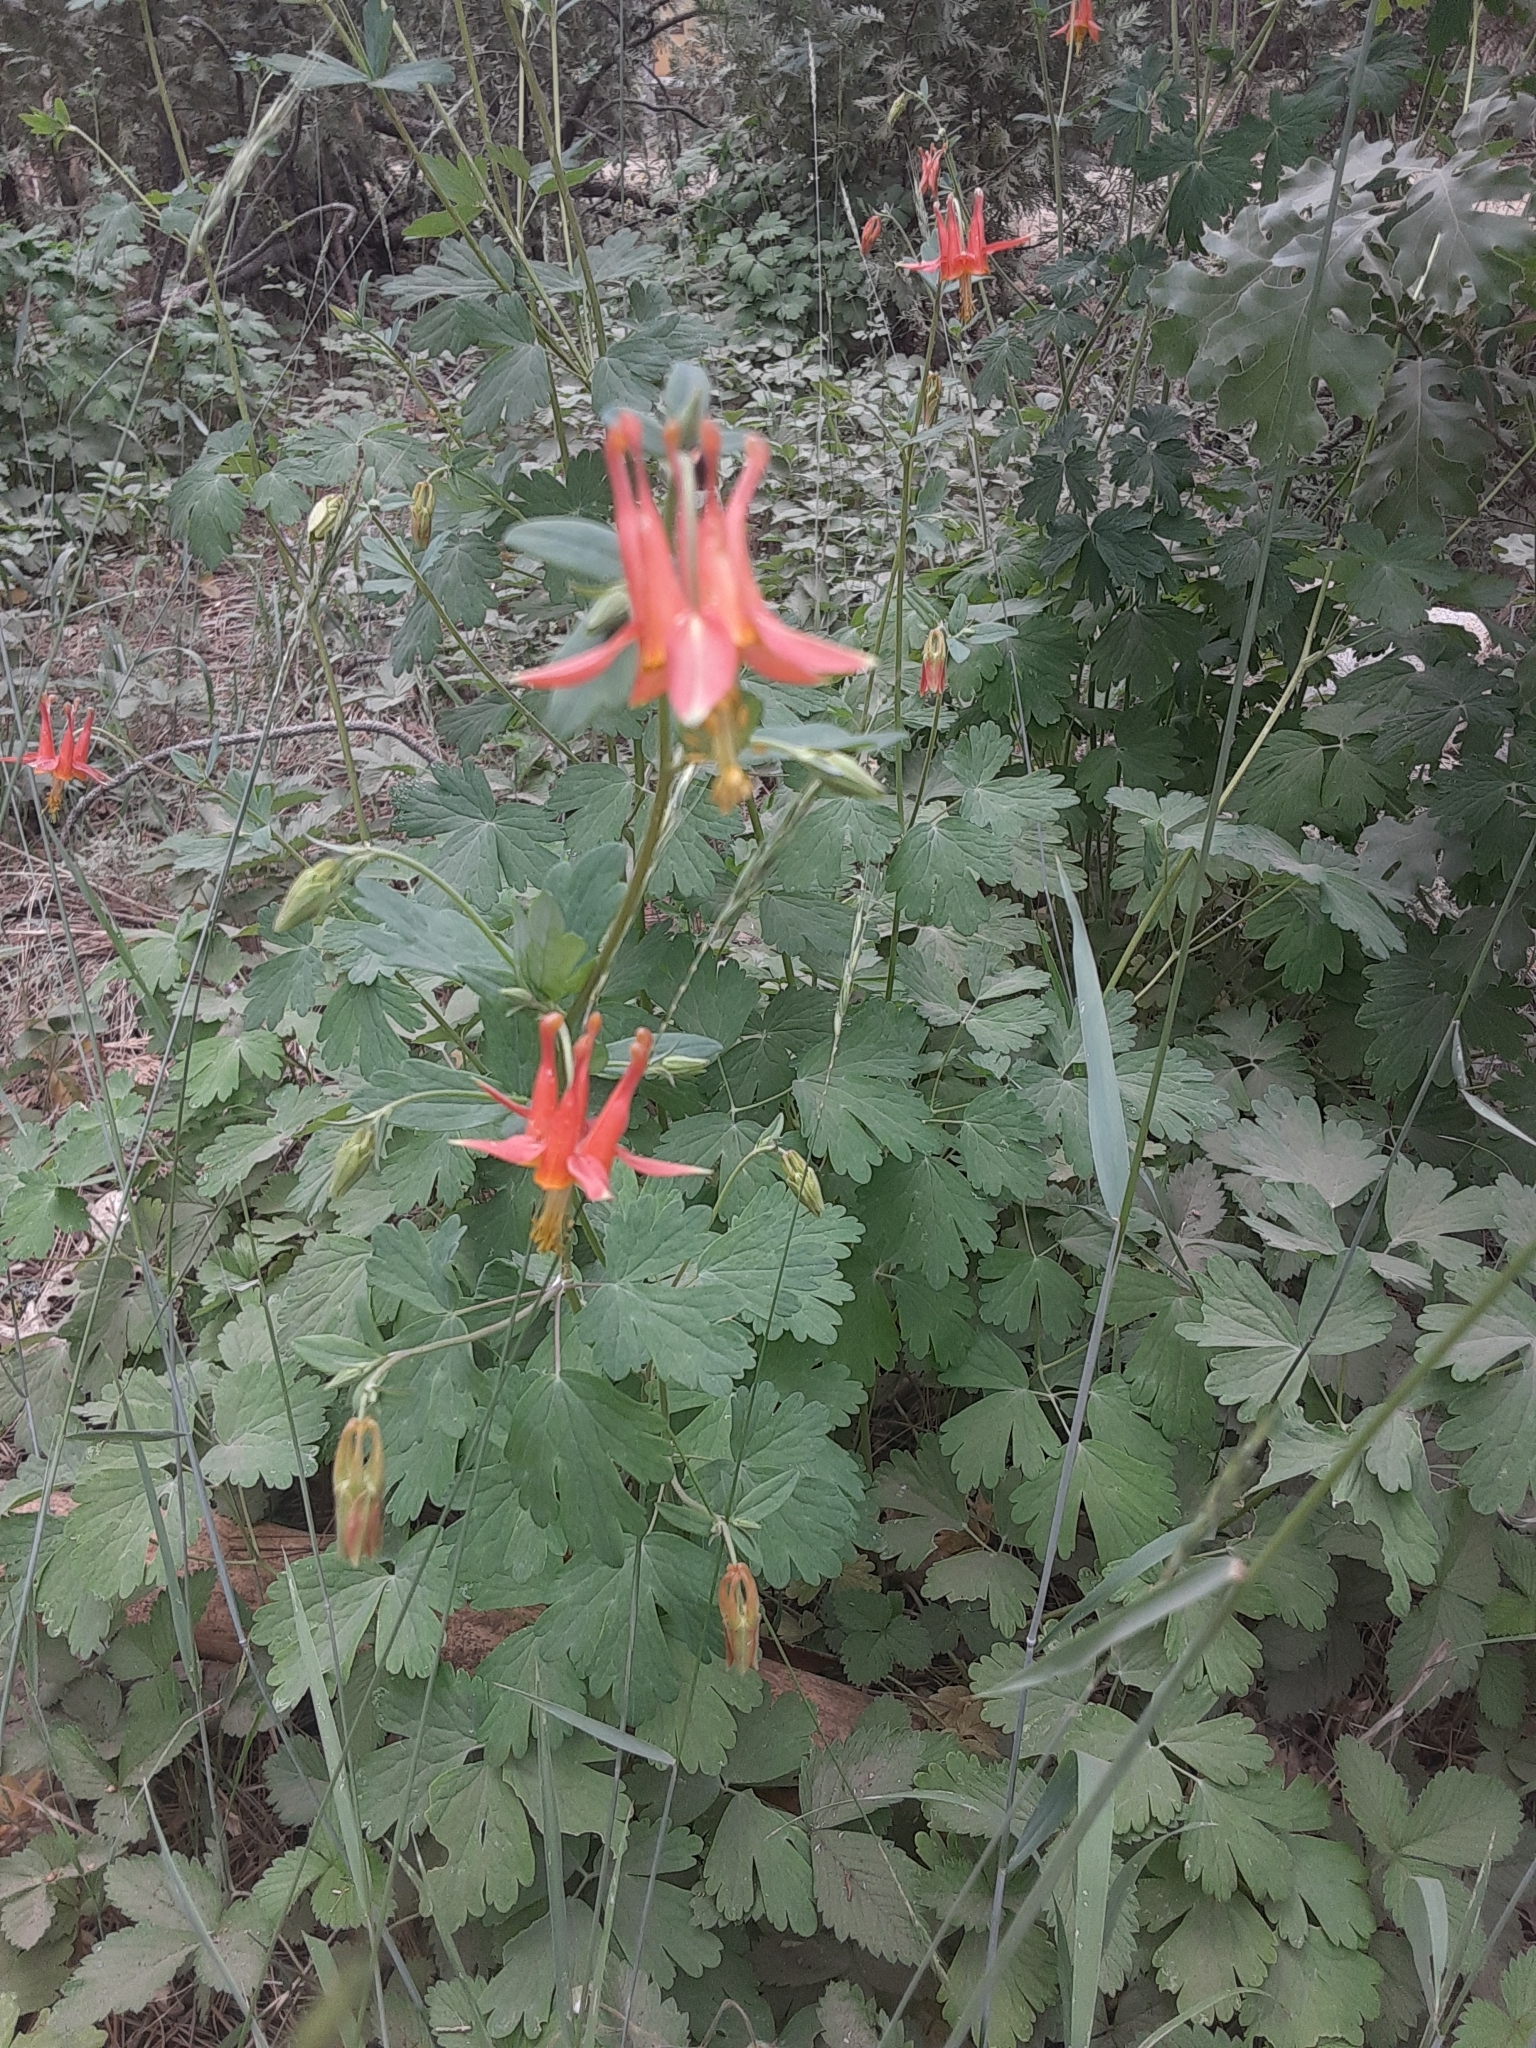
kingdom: Plantae
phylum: Tracheophyta
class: Magnoliopsida
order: Ranunculales
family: Ranunculaceae
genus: Aquilegia
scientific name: Aquilegia formosa
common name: Sitka columbine
